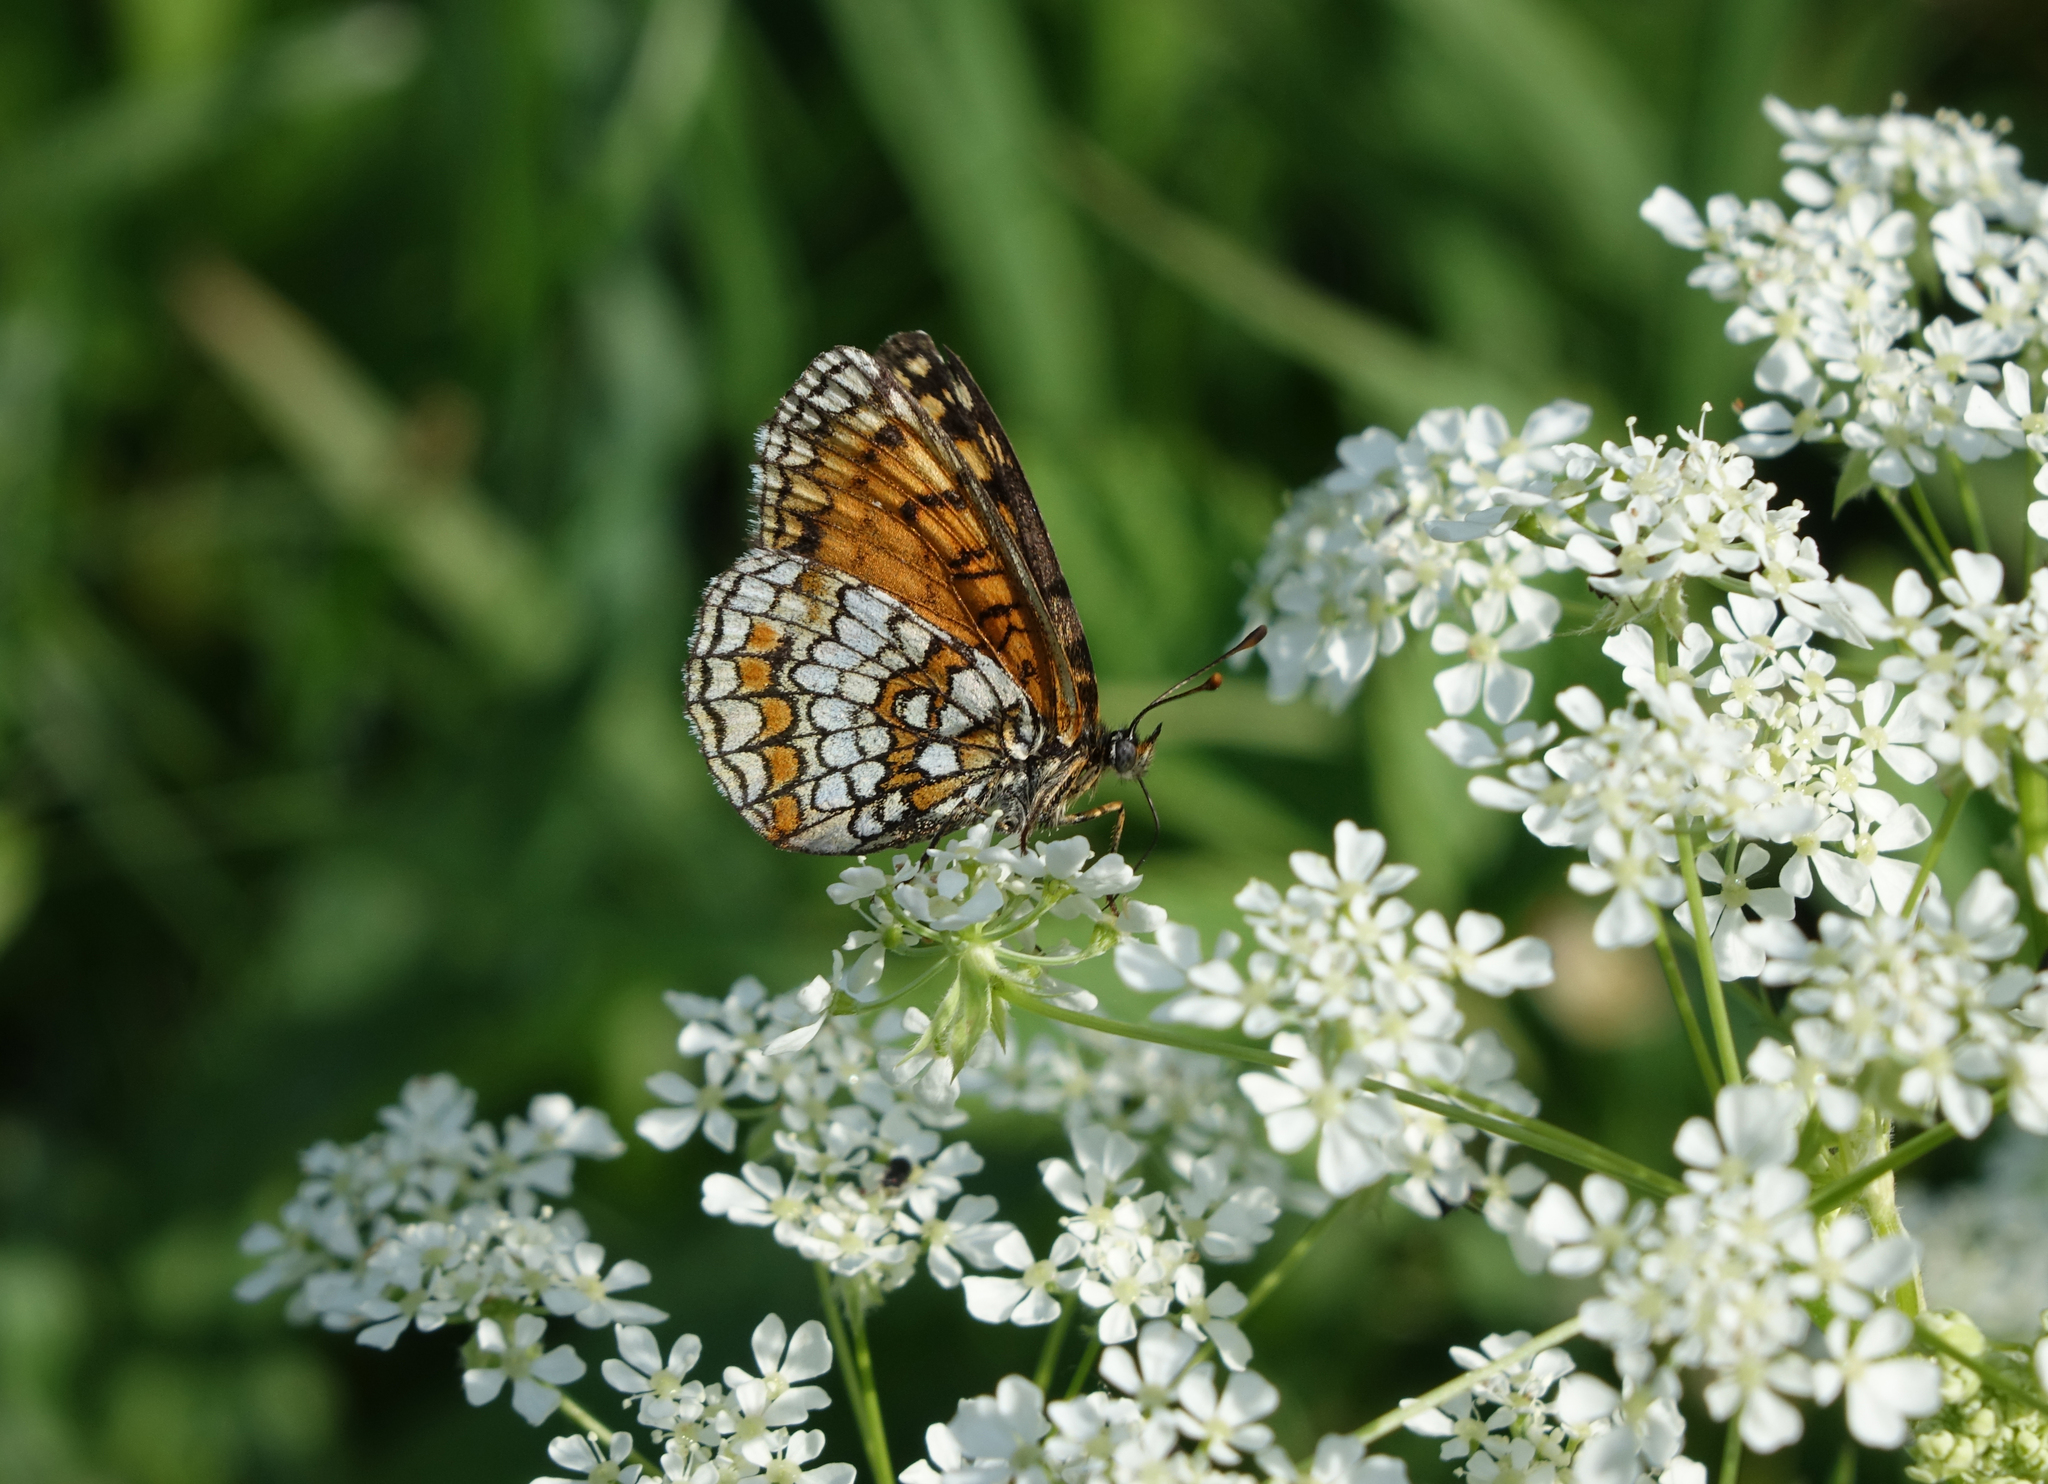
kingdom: Animalia
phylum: Arthropoda
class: Insecta
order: Lepidoptera
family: Nymphalidae
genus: Melitaea
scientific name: Melitaea athalia
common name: Heath fritillary
